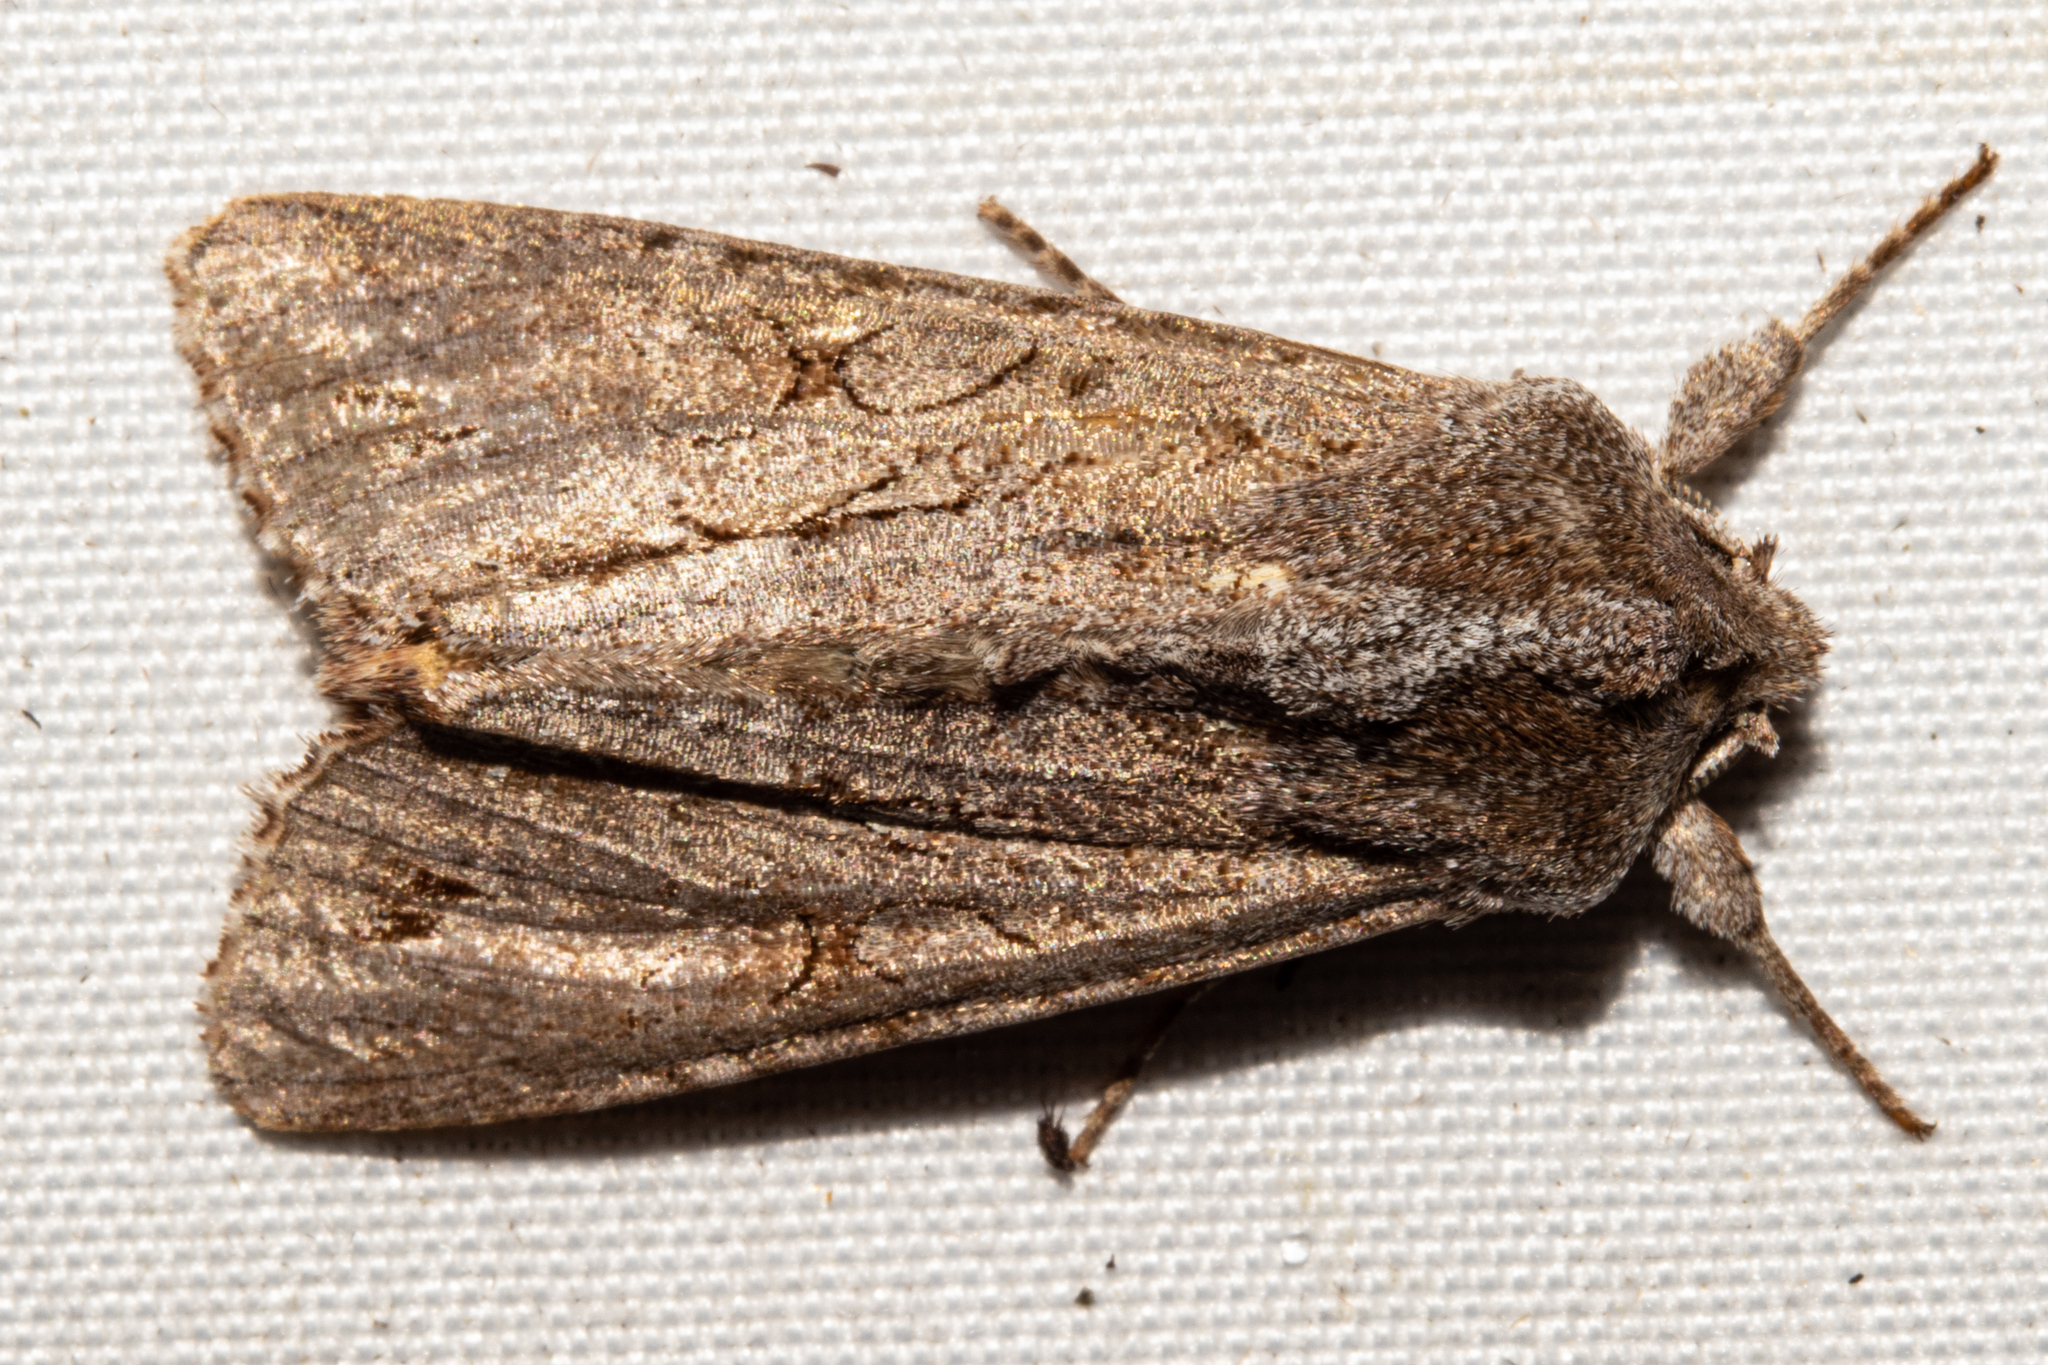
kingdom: Animalia
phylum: Arthropoda
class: Insecta
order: Lepidoptera
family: Noctuidae
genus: Ichneutica
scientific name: Ichneutica
